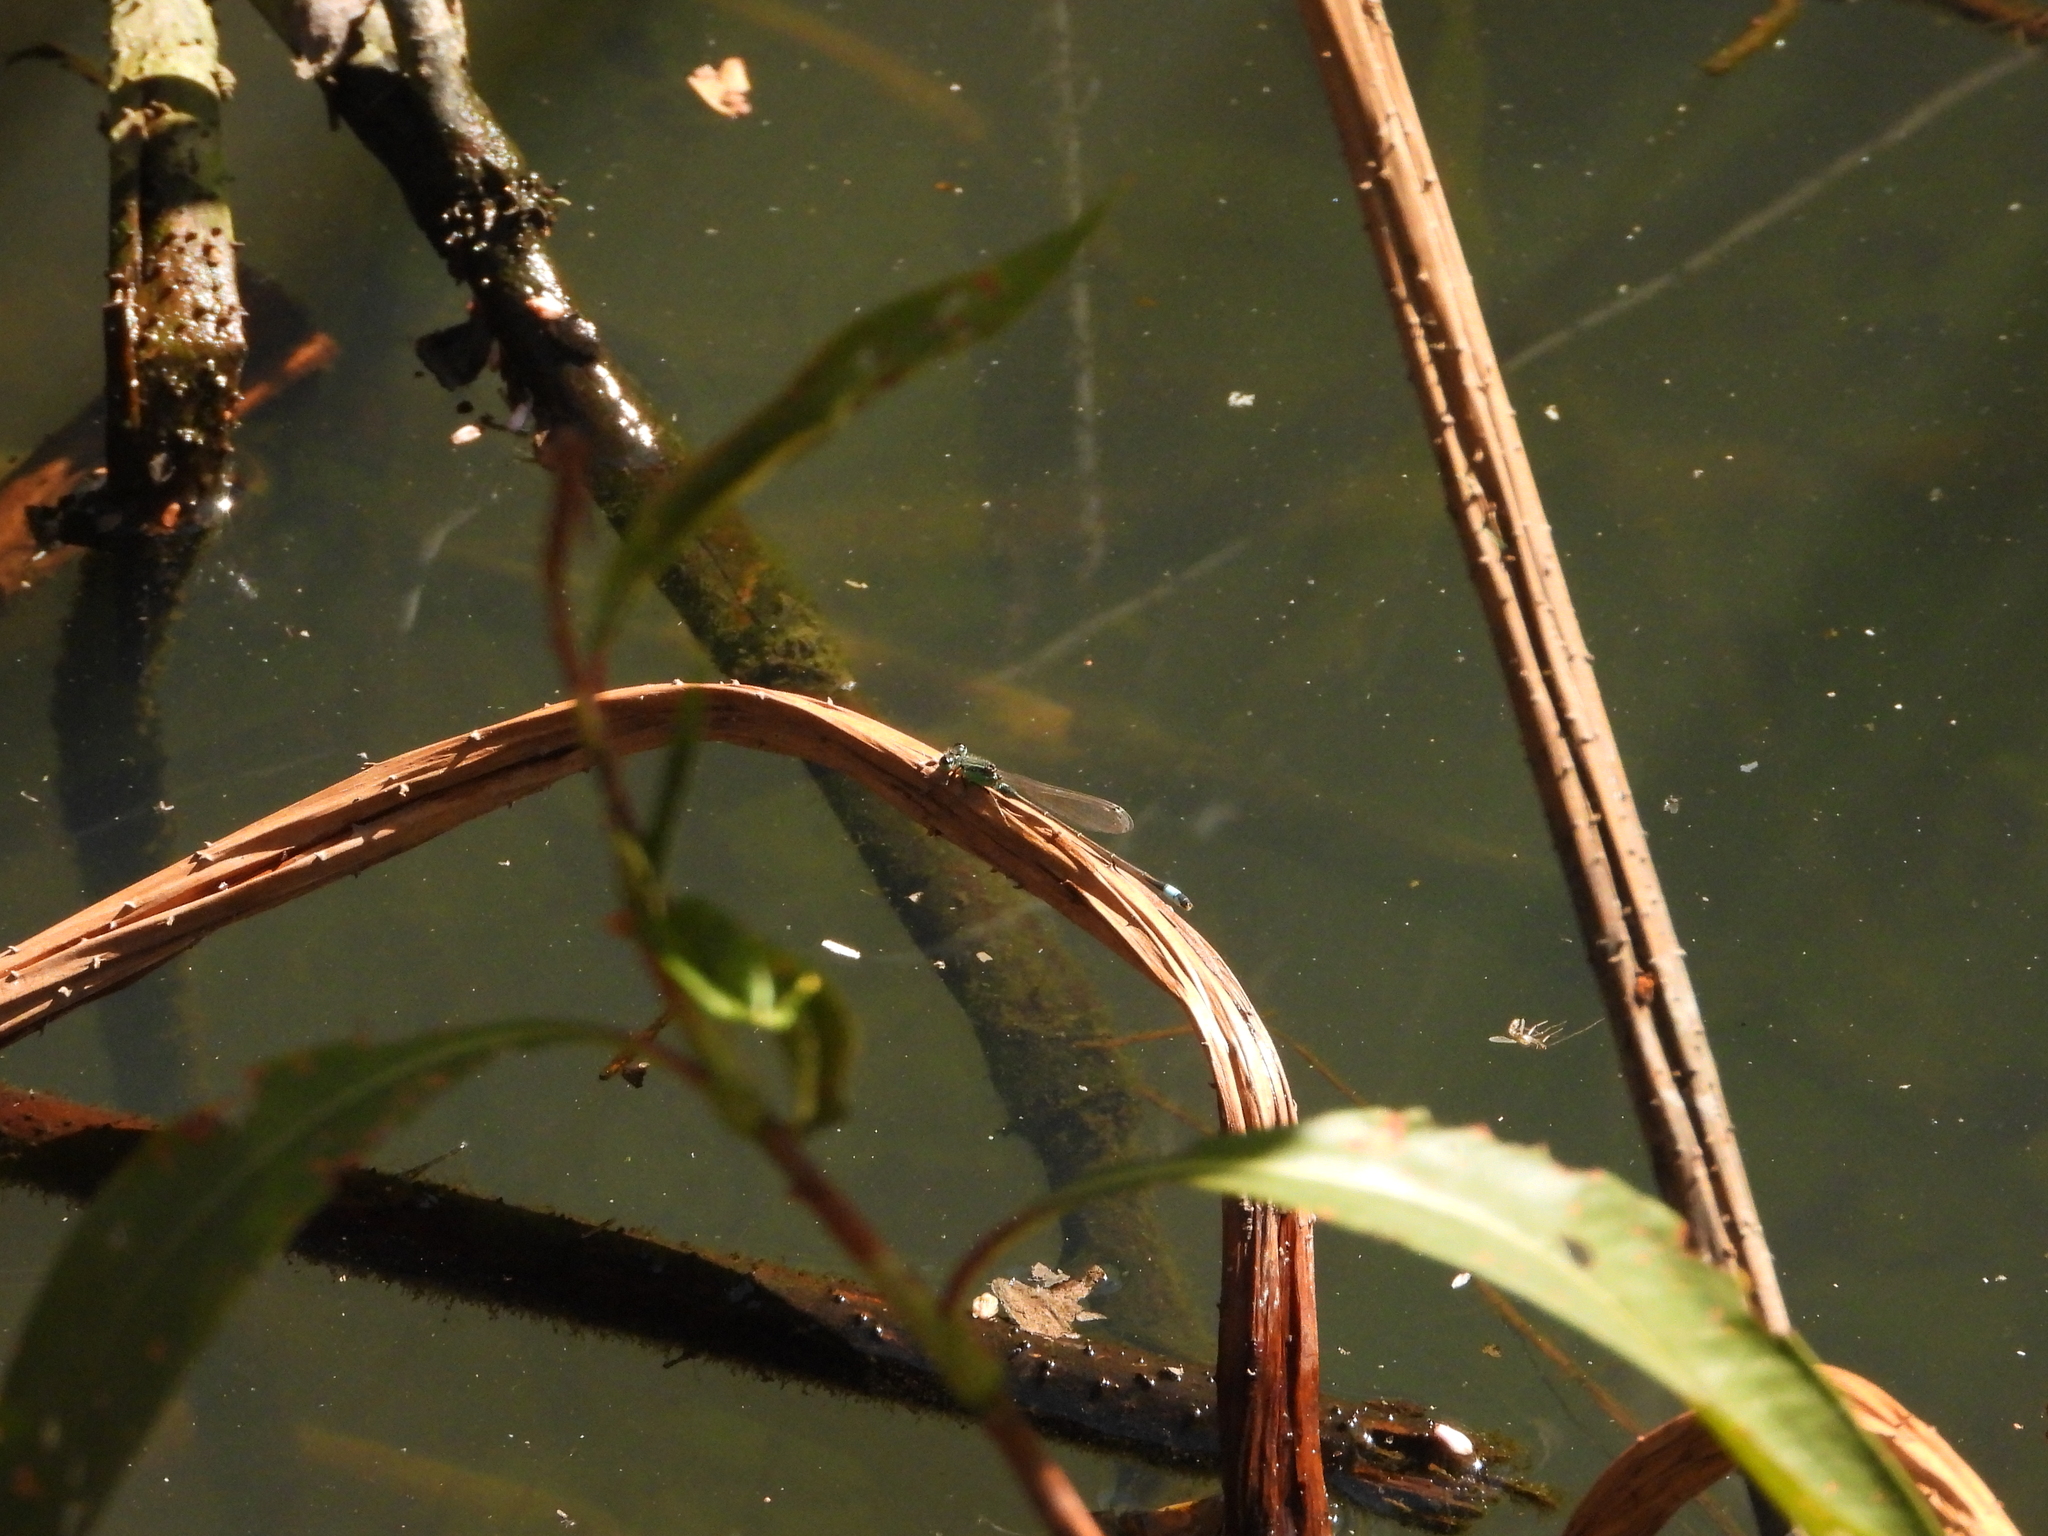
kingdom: Animalia
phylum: Arthropoda
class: Insecta
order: Odonata
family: Coenagrionidae
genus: Ischnura
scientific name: Ischnura senegalensis
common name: Tropical bluetail
